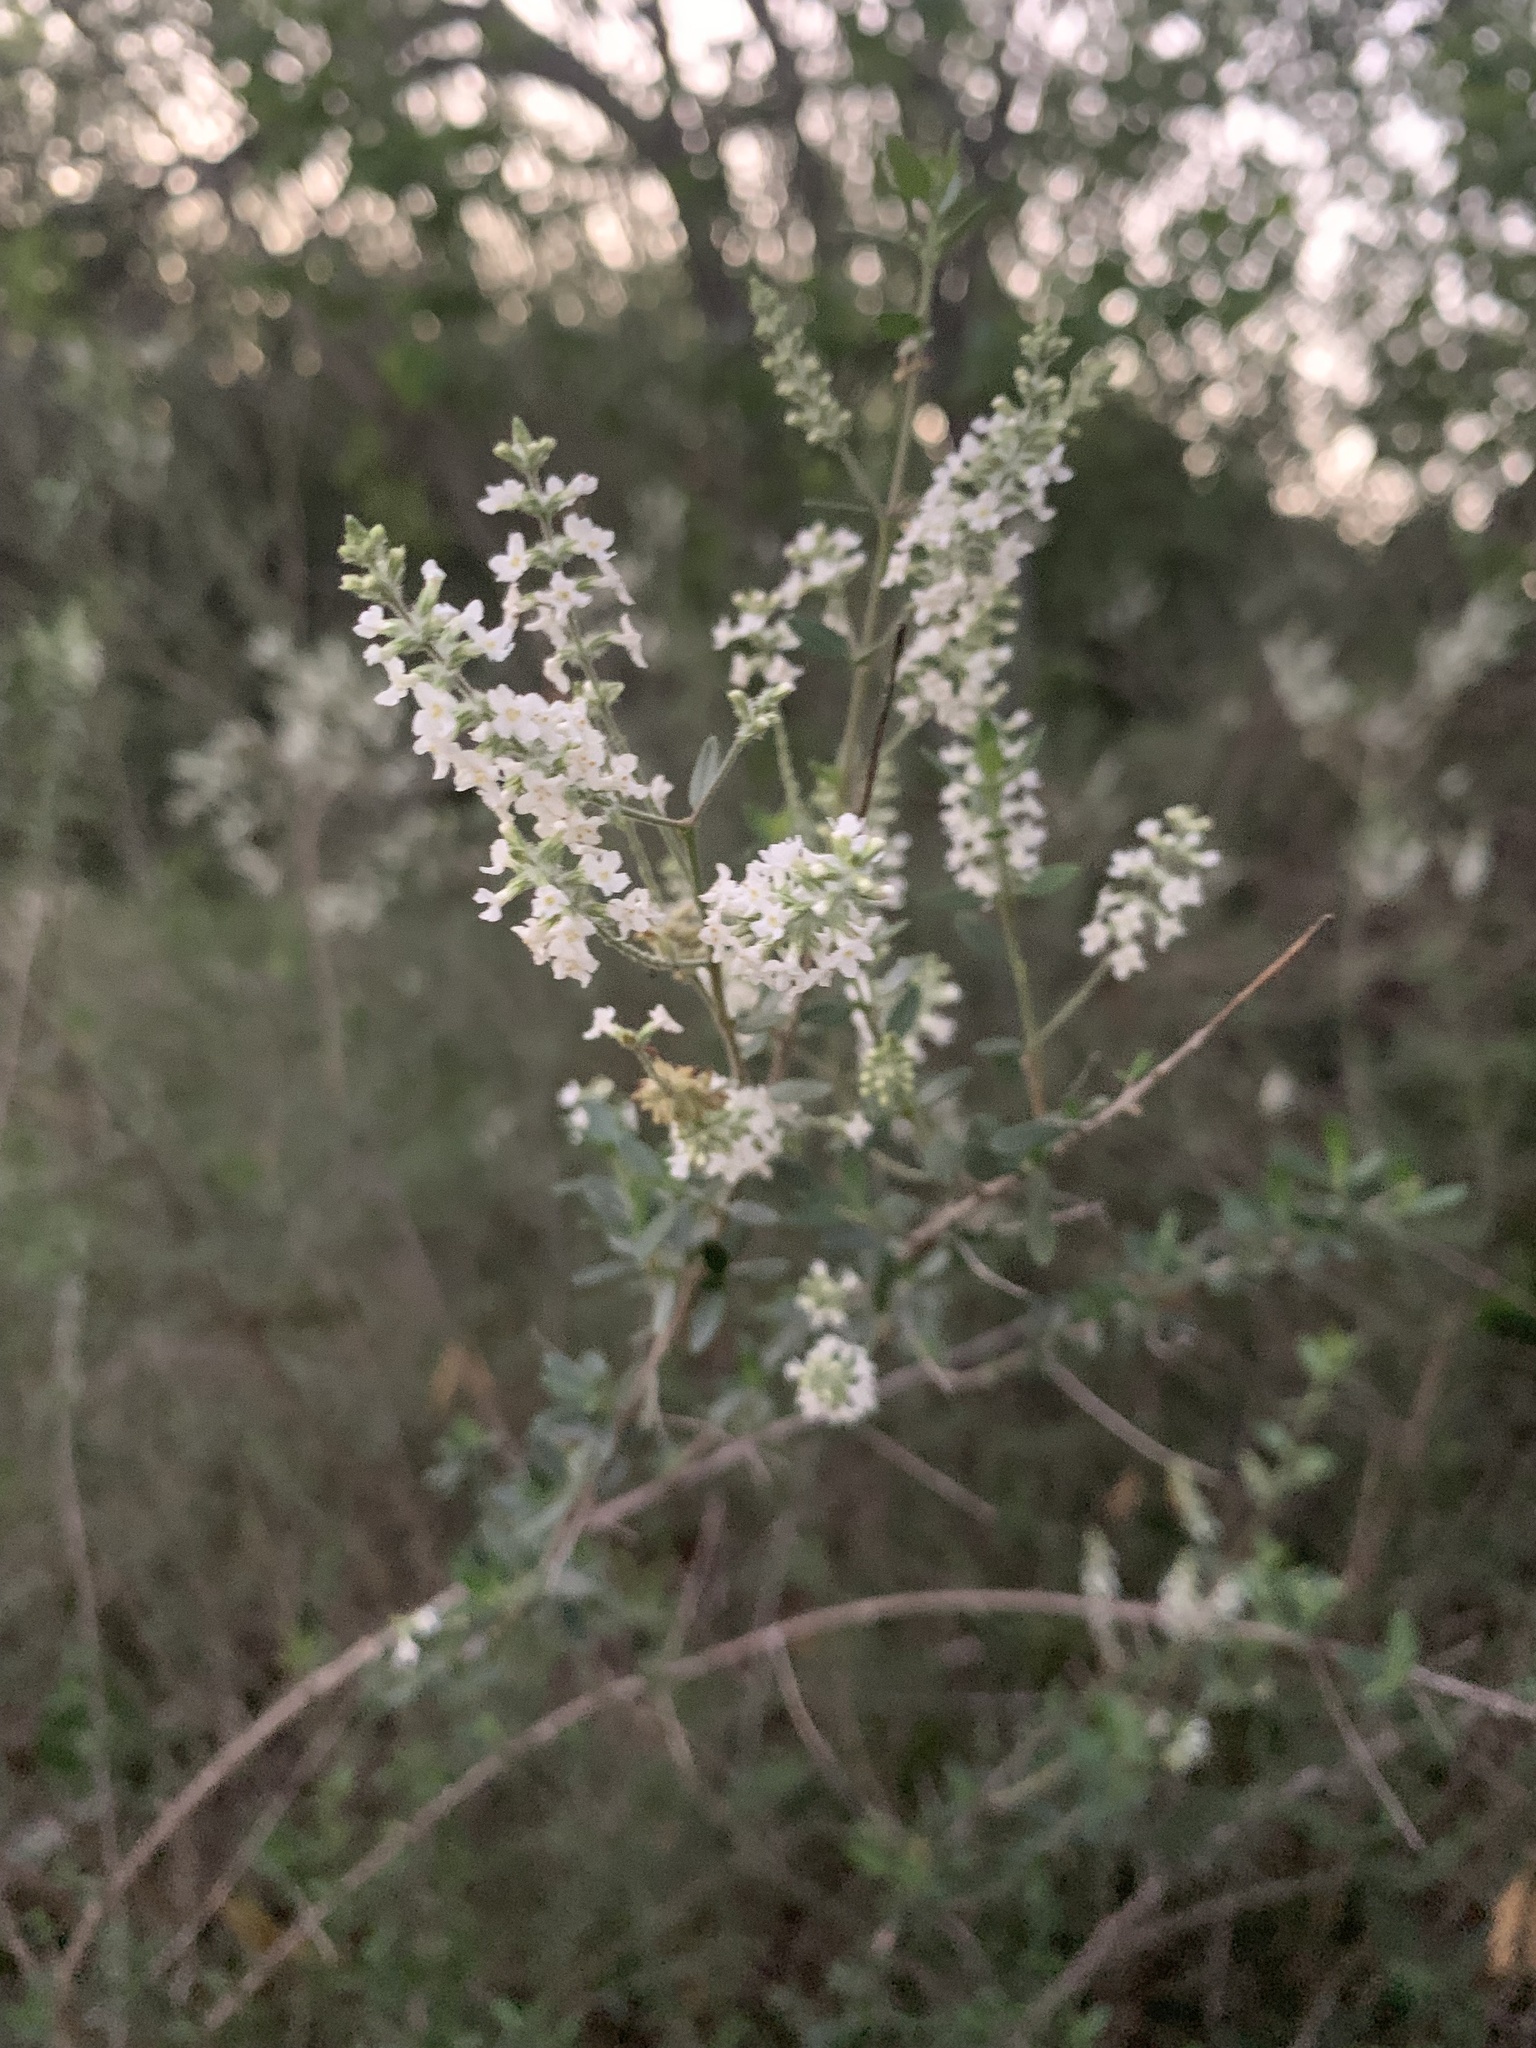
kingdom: Plantae
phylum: Tracheophyta
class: Magnoliopsida
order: Lamiales
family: Verbenaceae
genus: Aloysia
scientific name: Aloysia gratissima
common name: Common bee-brush
